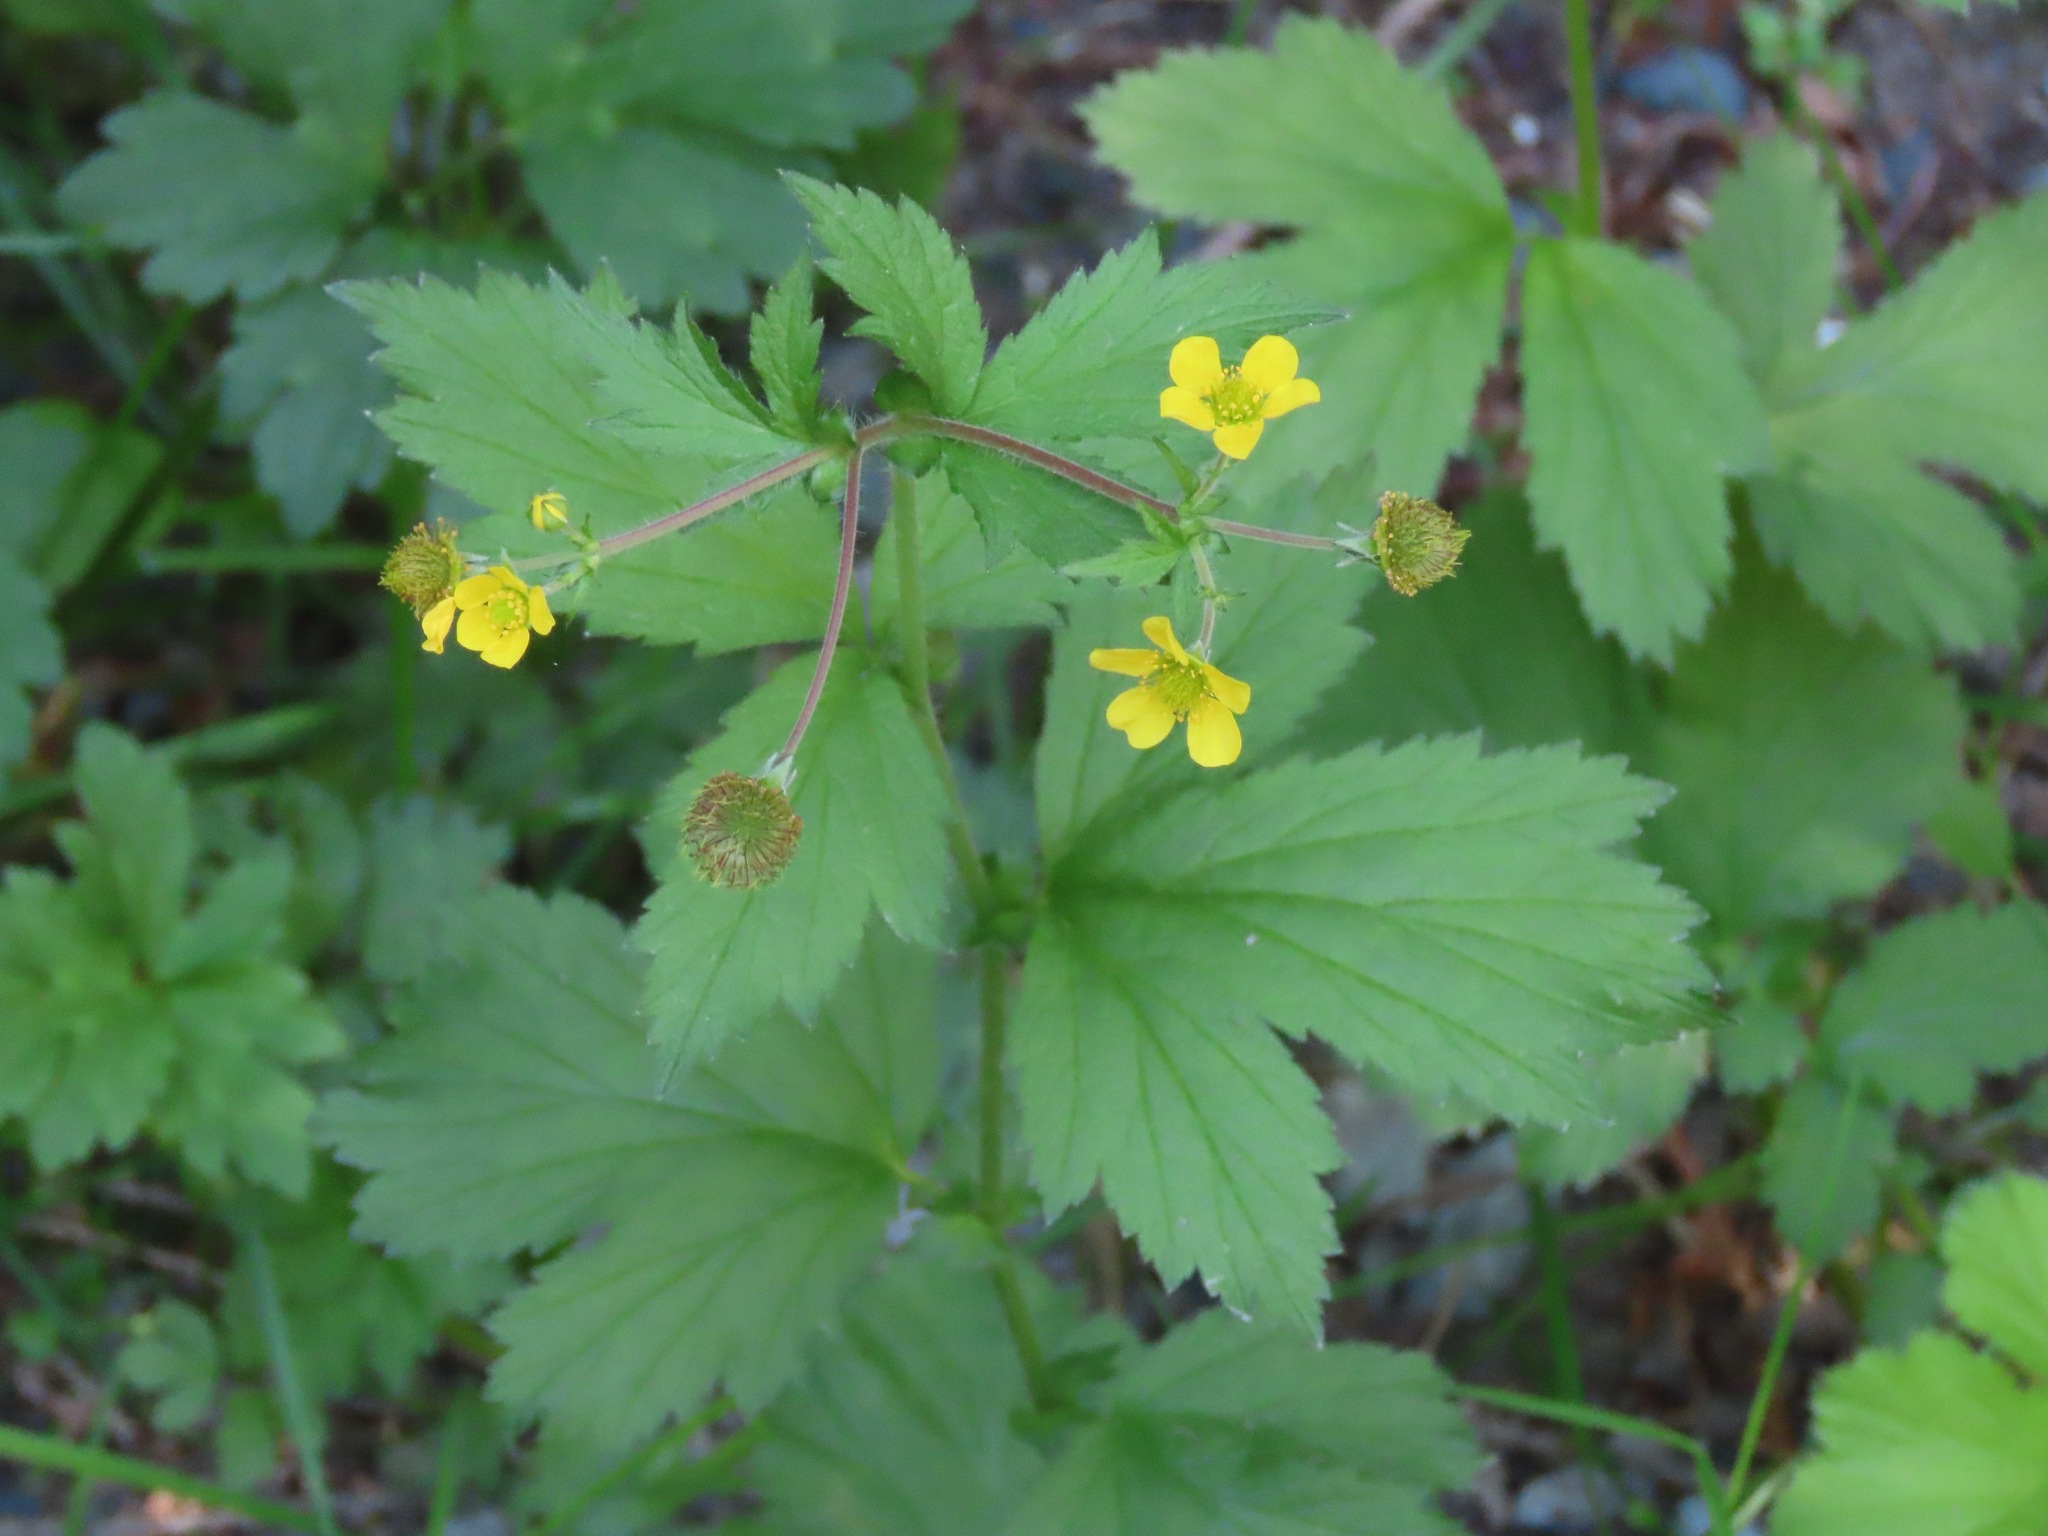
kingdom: Plantae
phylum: Tracheophyta
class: Magnoliopsida
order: Rosales
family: Rosaceae
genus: Geum
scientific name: Geum macrophyllum
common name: Large-leaved avens
